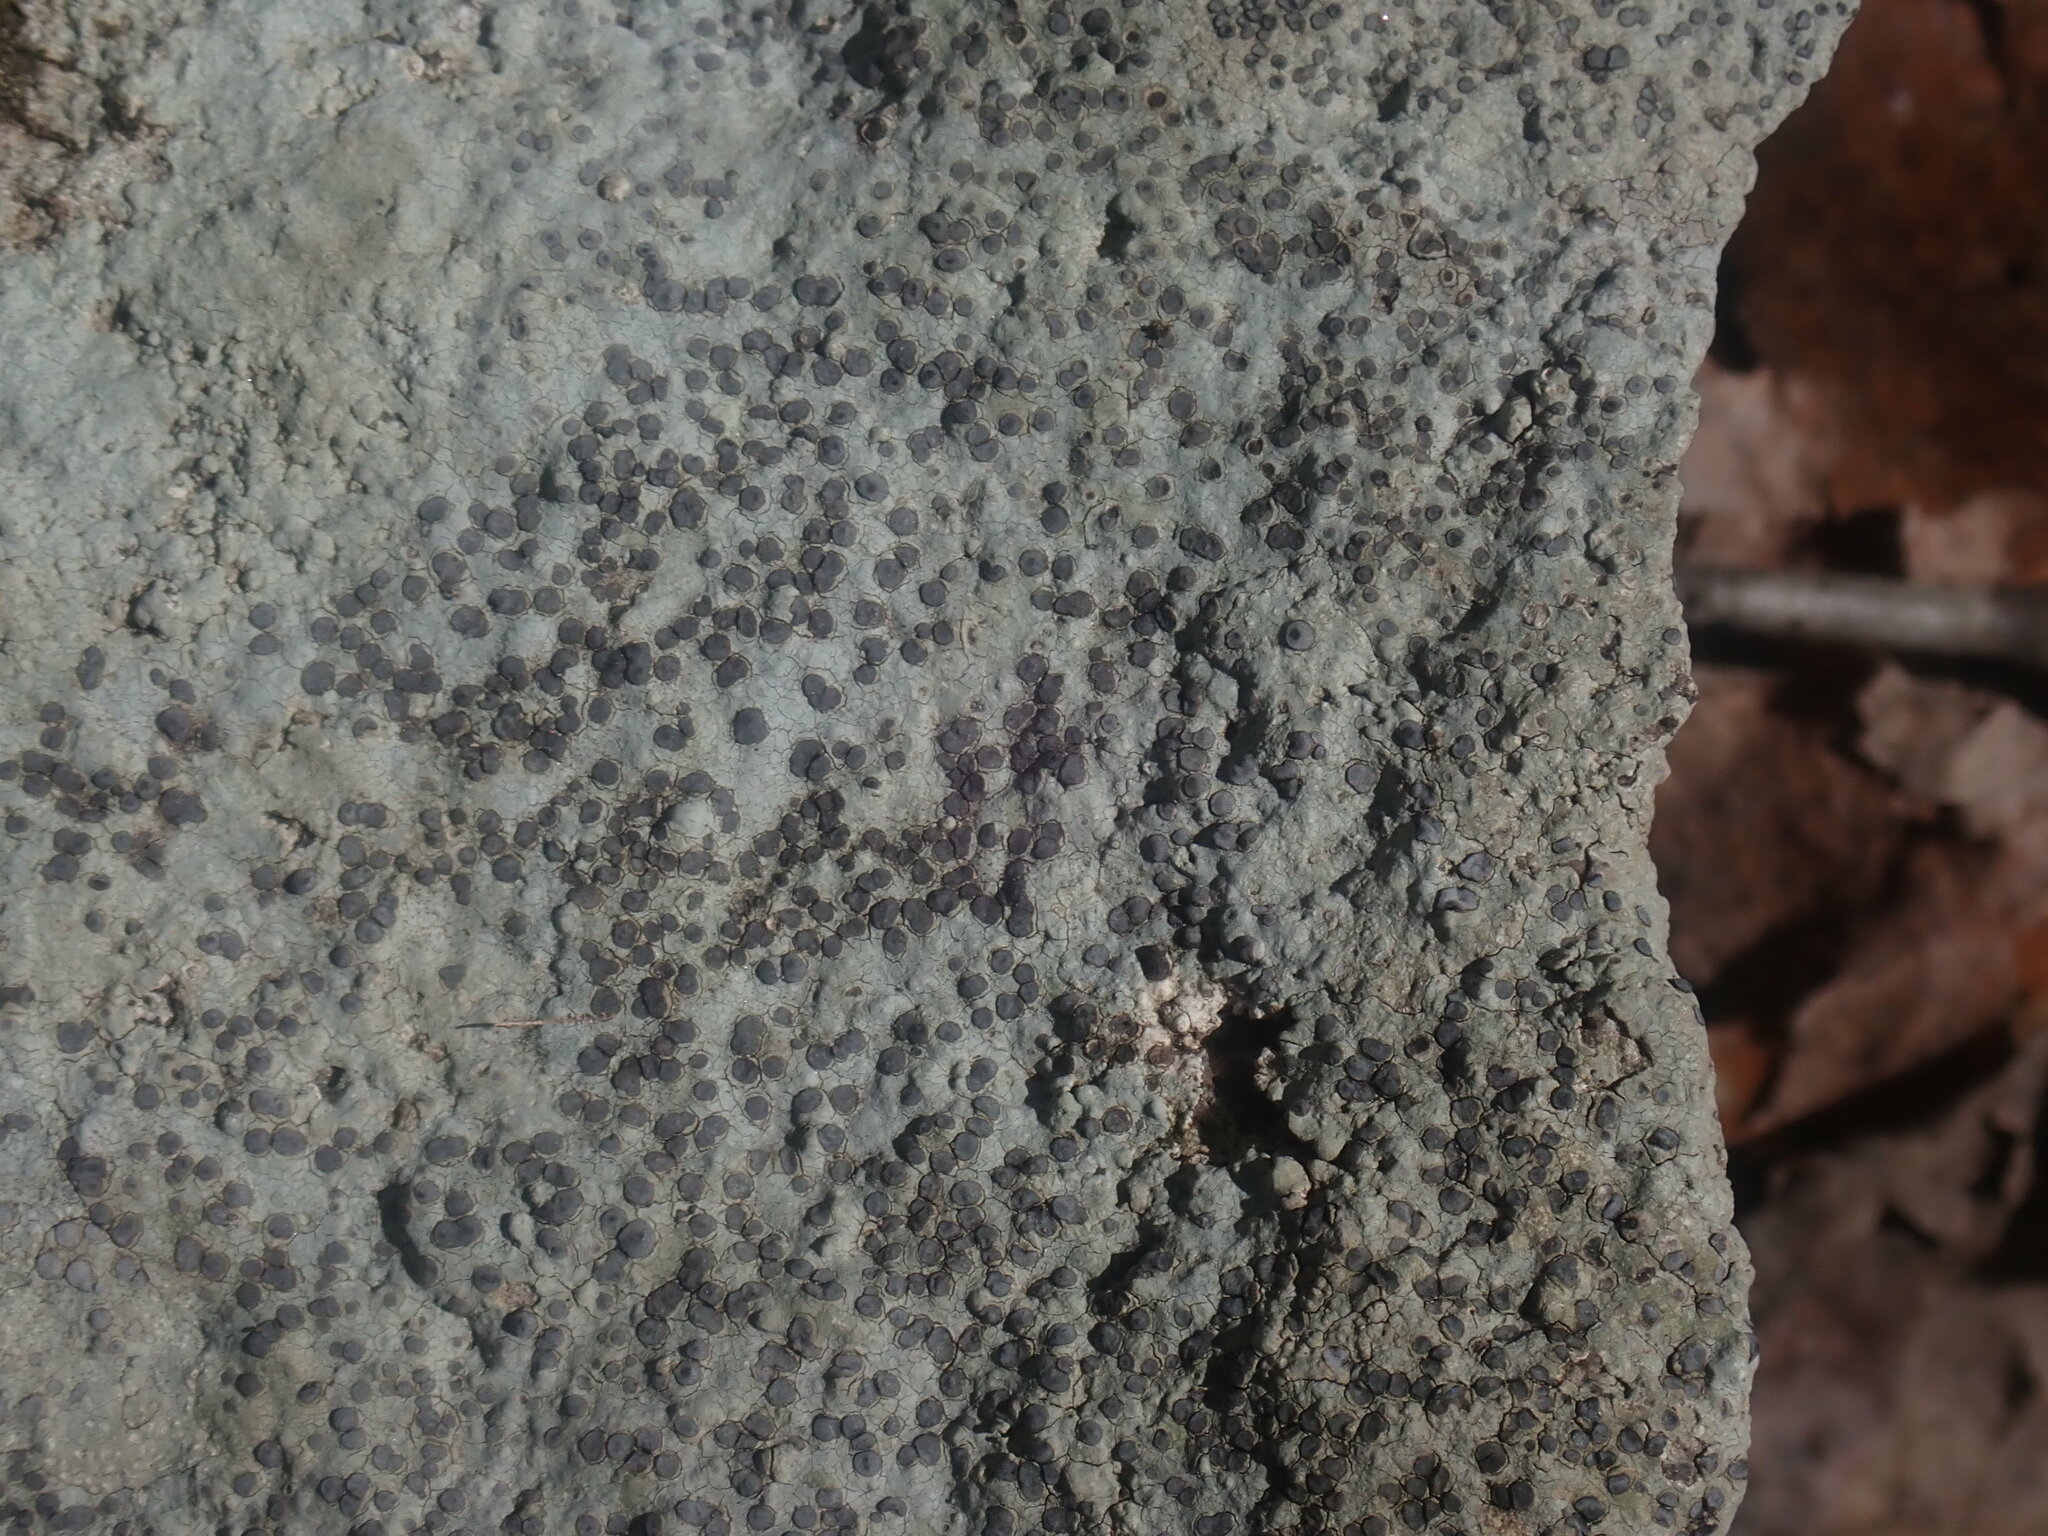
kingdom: Fungi
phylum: Ascomycota
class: Lecanoromycetes
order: Lecideales
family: Lecideaceae
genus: Porpidia
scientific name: Porpidia albocaerulescens
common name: Smokey-eyed boulder lichen
